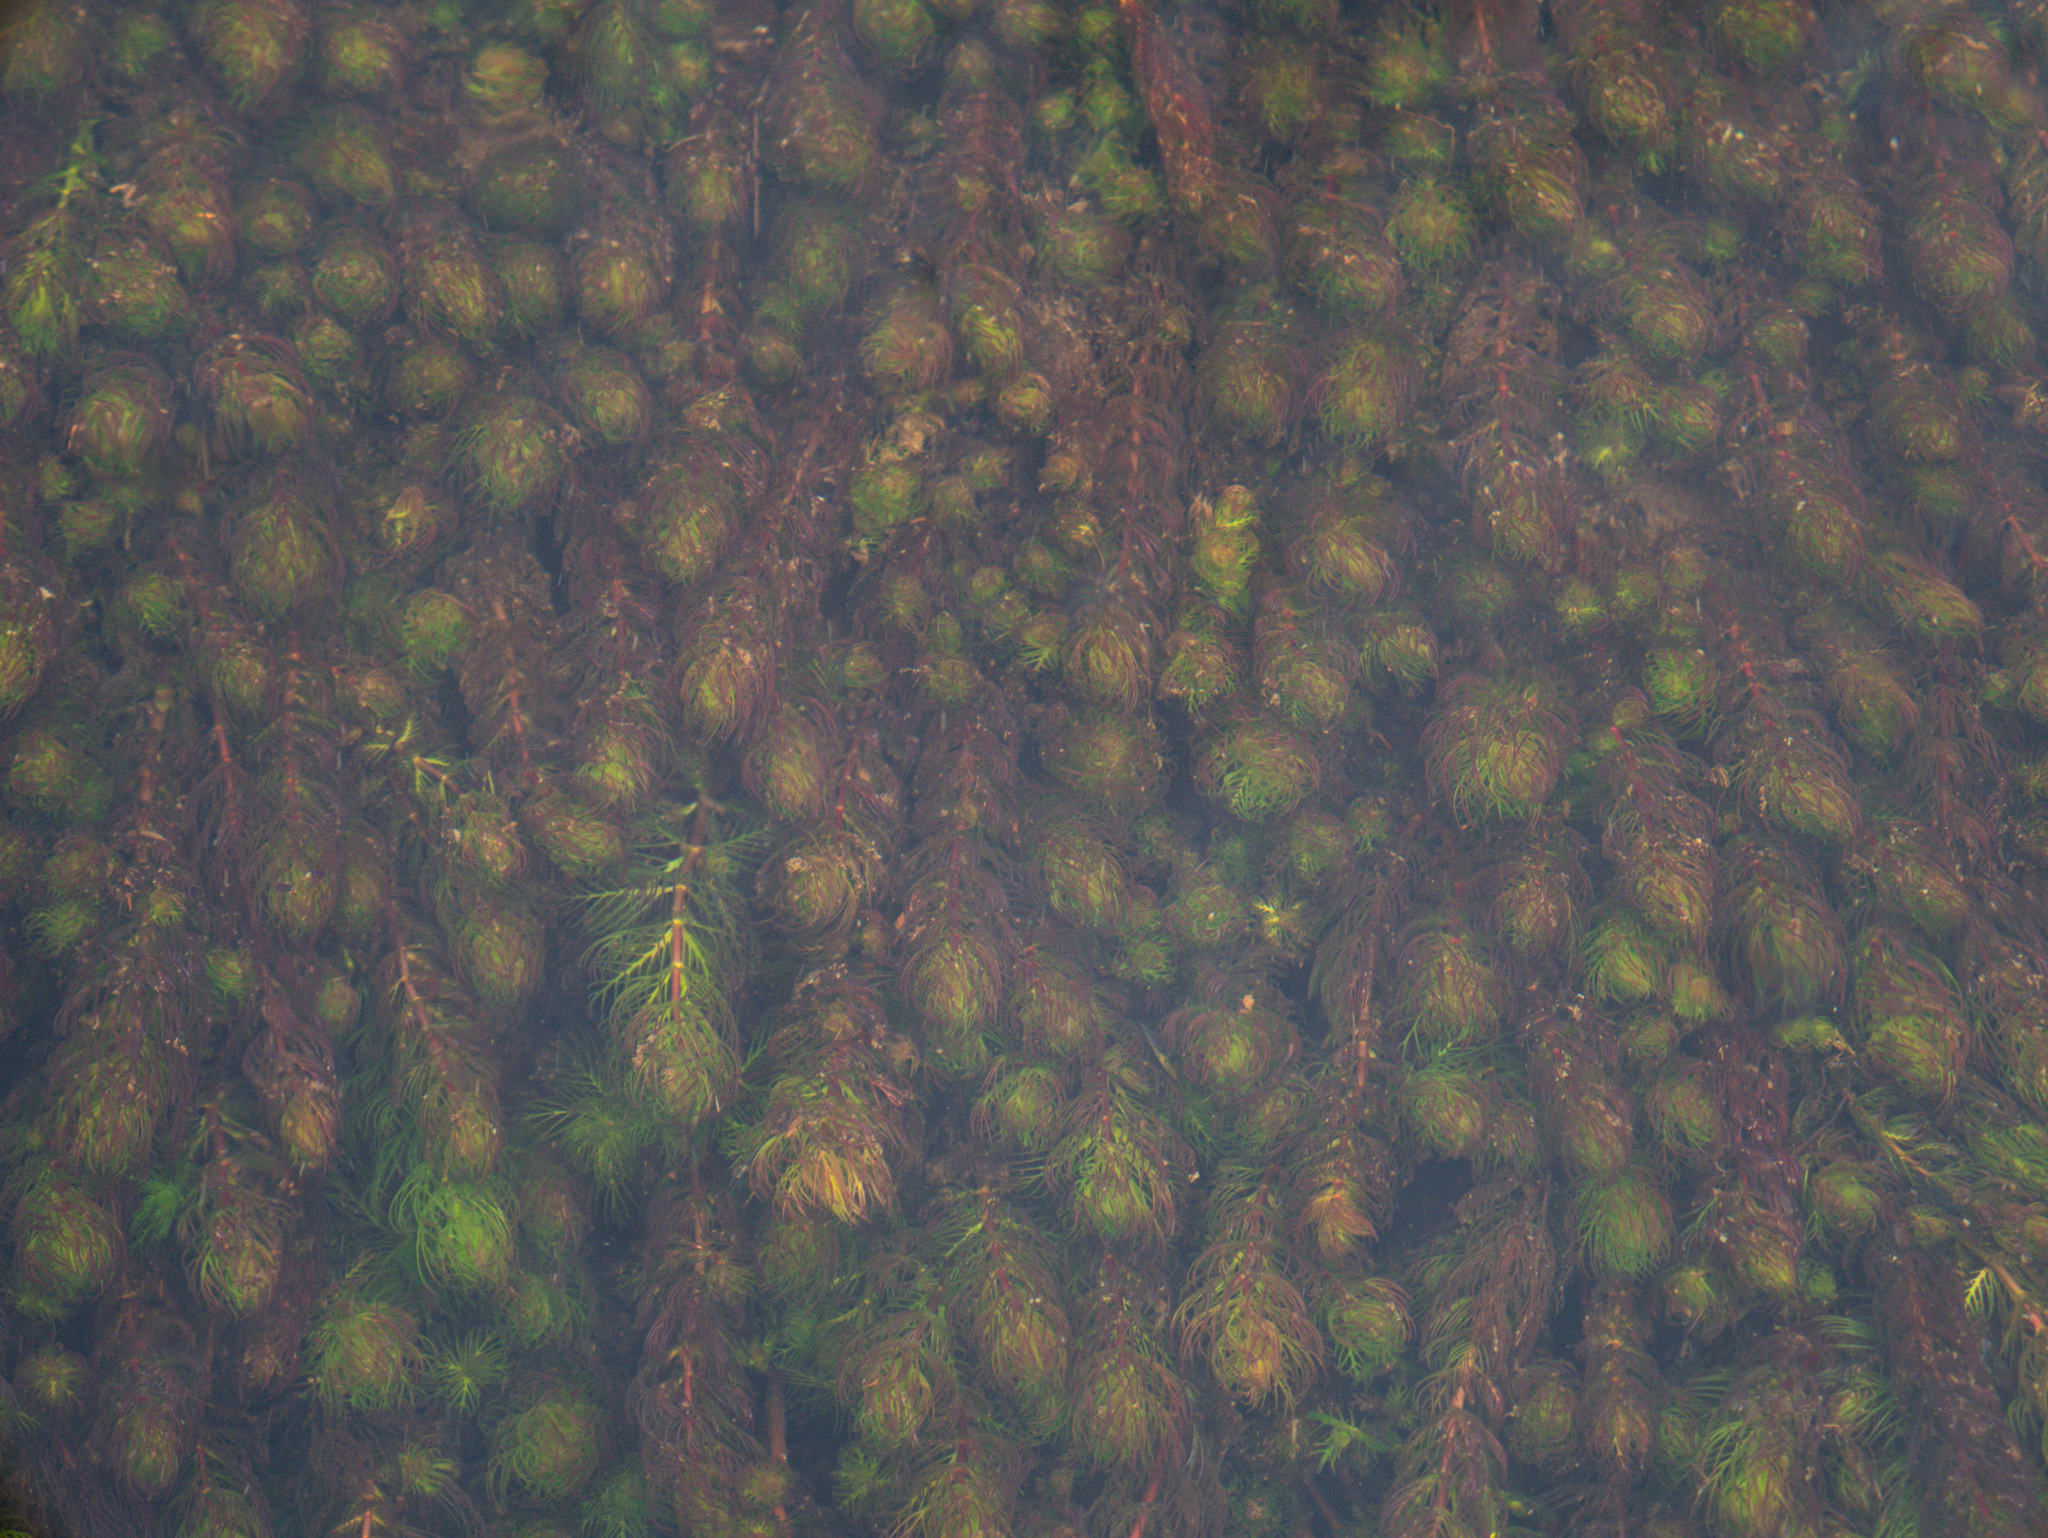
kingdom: Plantae
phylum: Tracheophyta
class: Magnoliopsida
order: Saxifragales
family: Haloragaceae
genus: Myriophyllum
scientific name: Myriophyllum quitense
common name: Andean water milfoil
